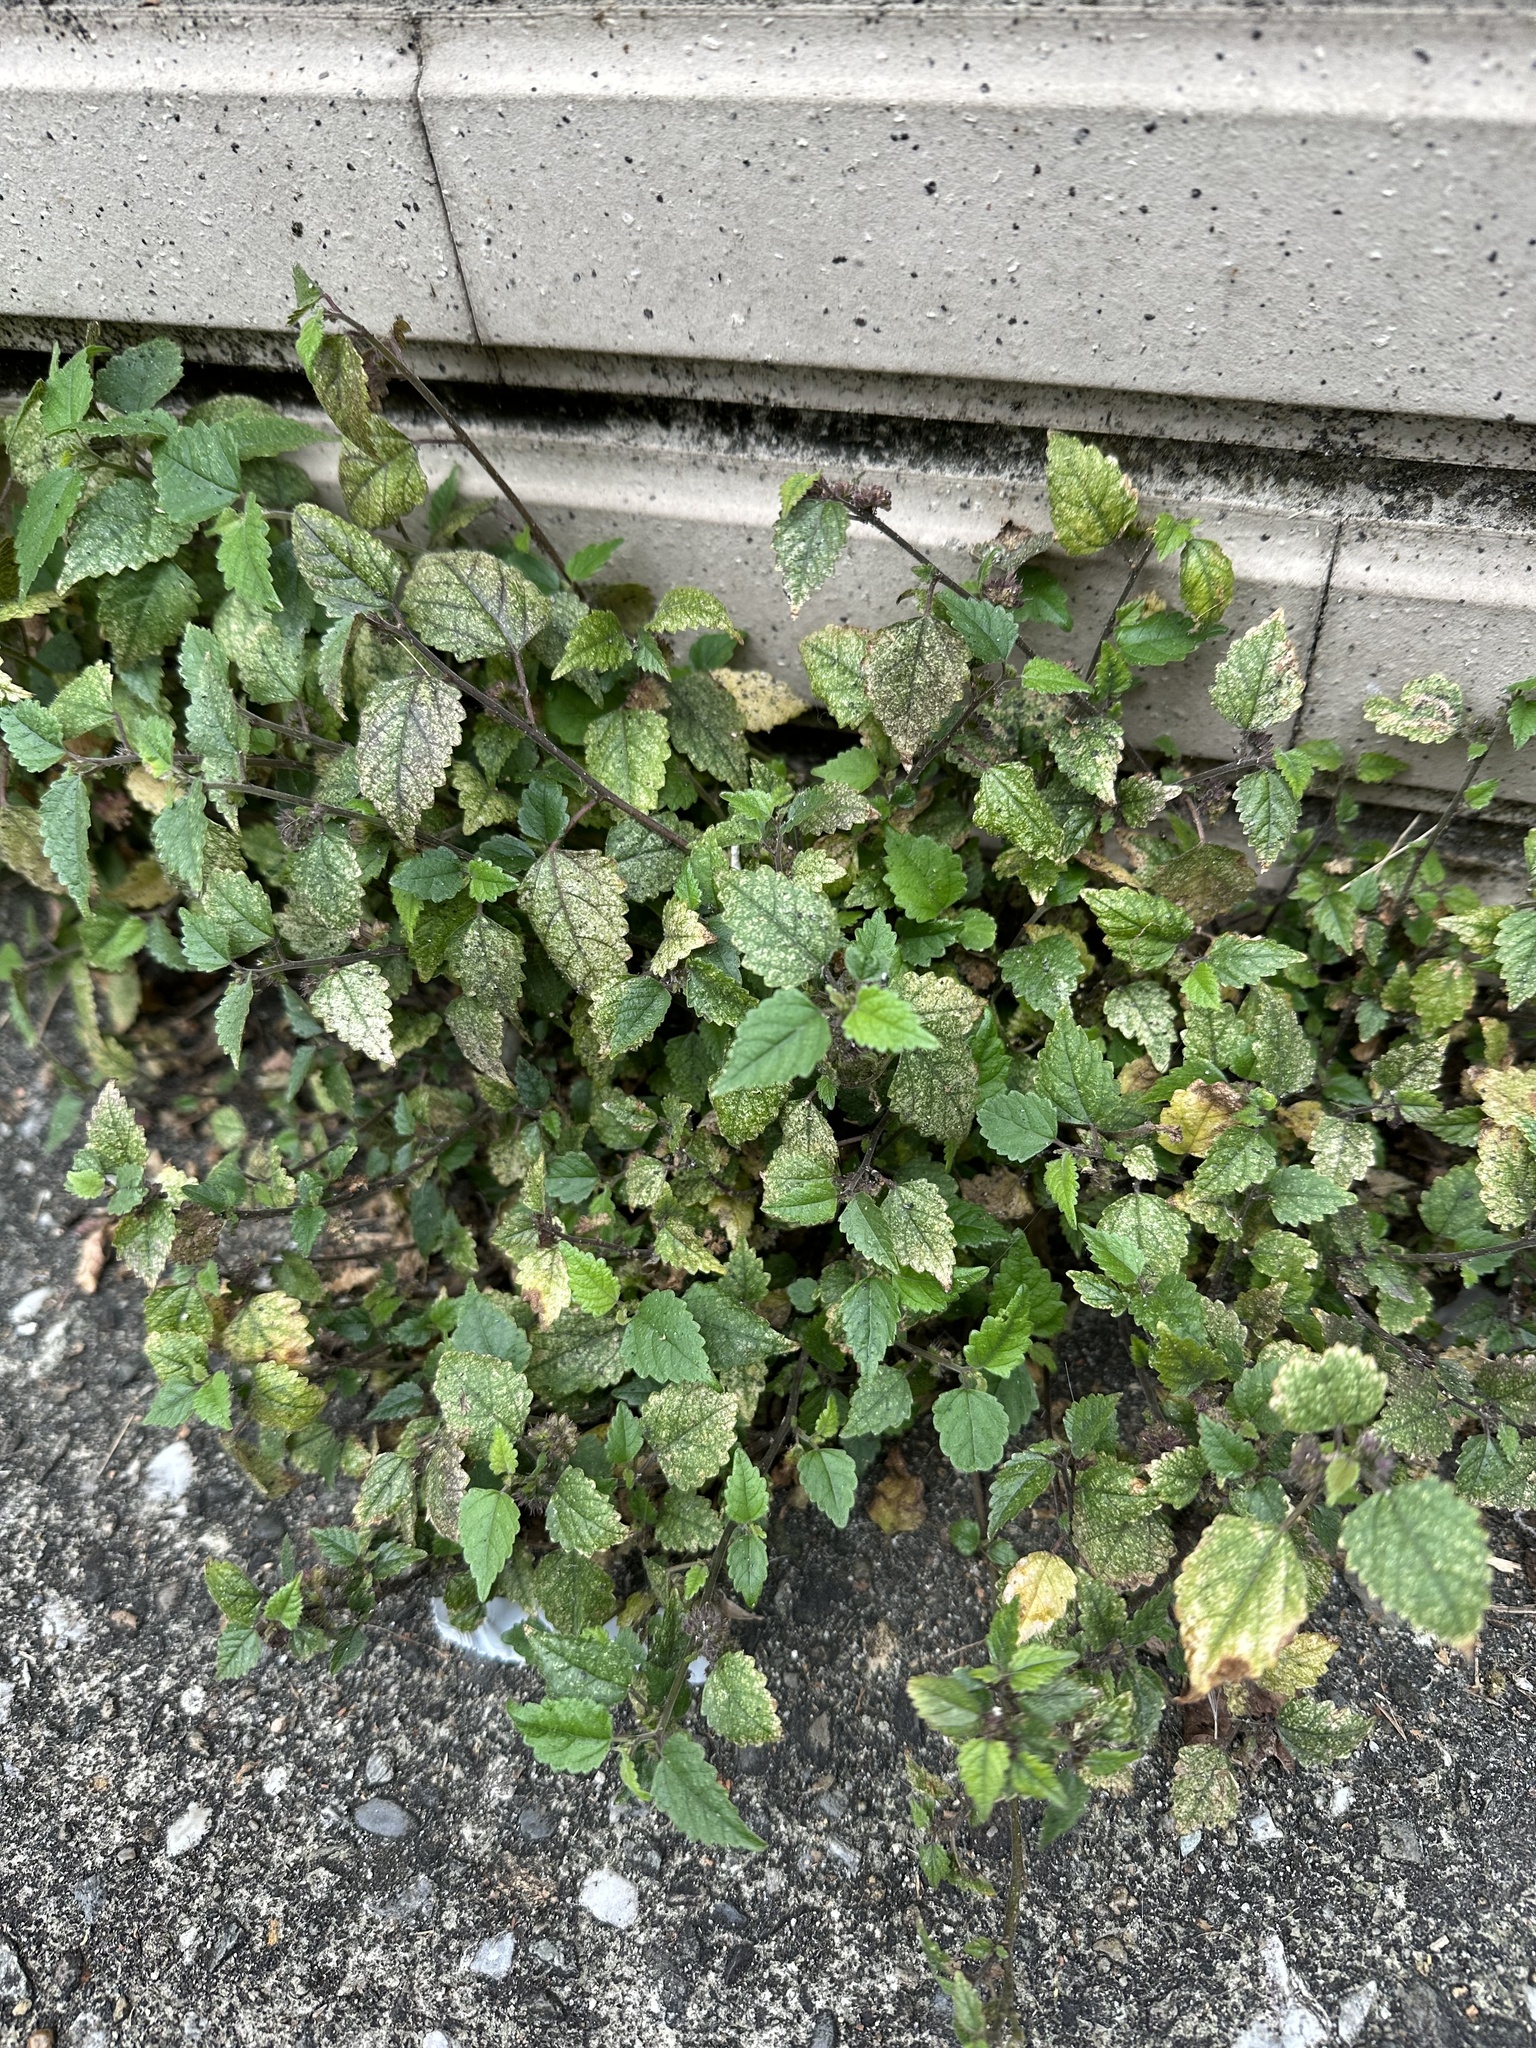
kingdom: Plantae
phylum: Tracheophyta
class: Magnoliopsida
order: Rosales
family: Moraceae
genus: Fatoua
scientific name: Fatoua villosa
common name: Hairy crabweed
